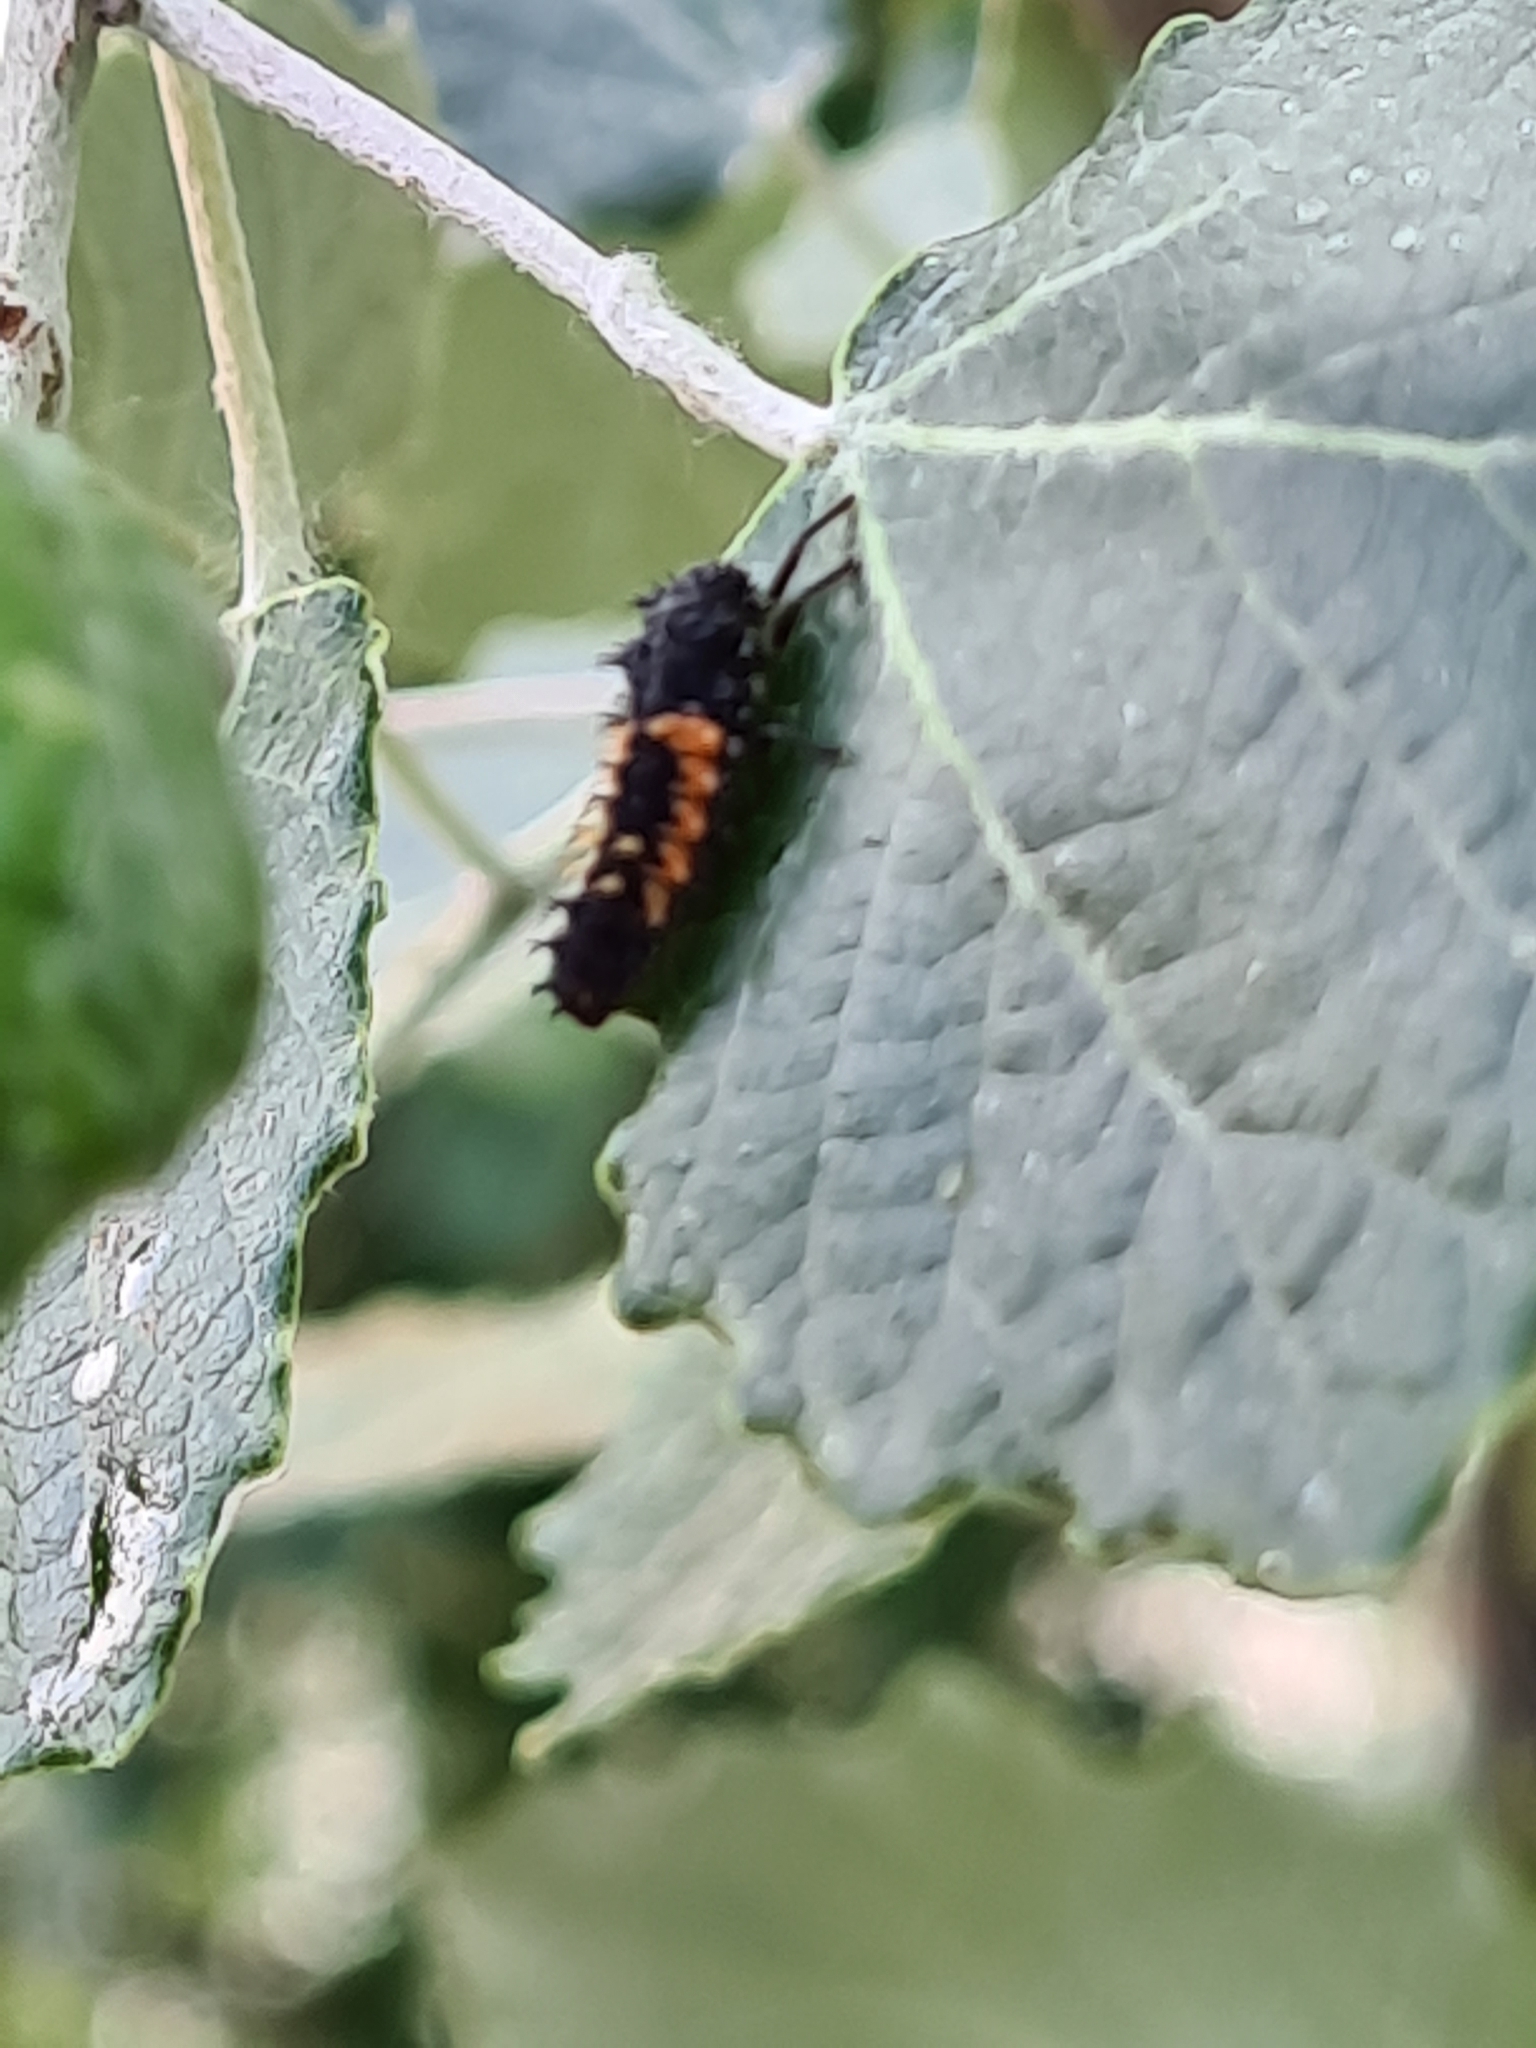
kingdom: Animalia
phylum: Arthropoda
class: Insecta
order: Coleoptera
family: Coccinellidae
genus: Harmonia
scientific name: Harmonia axyridis
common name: Harlequin ladybird
